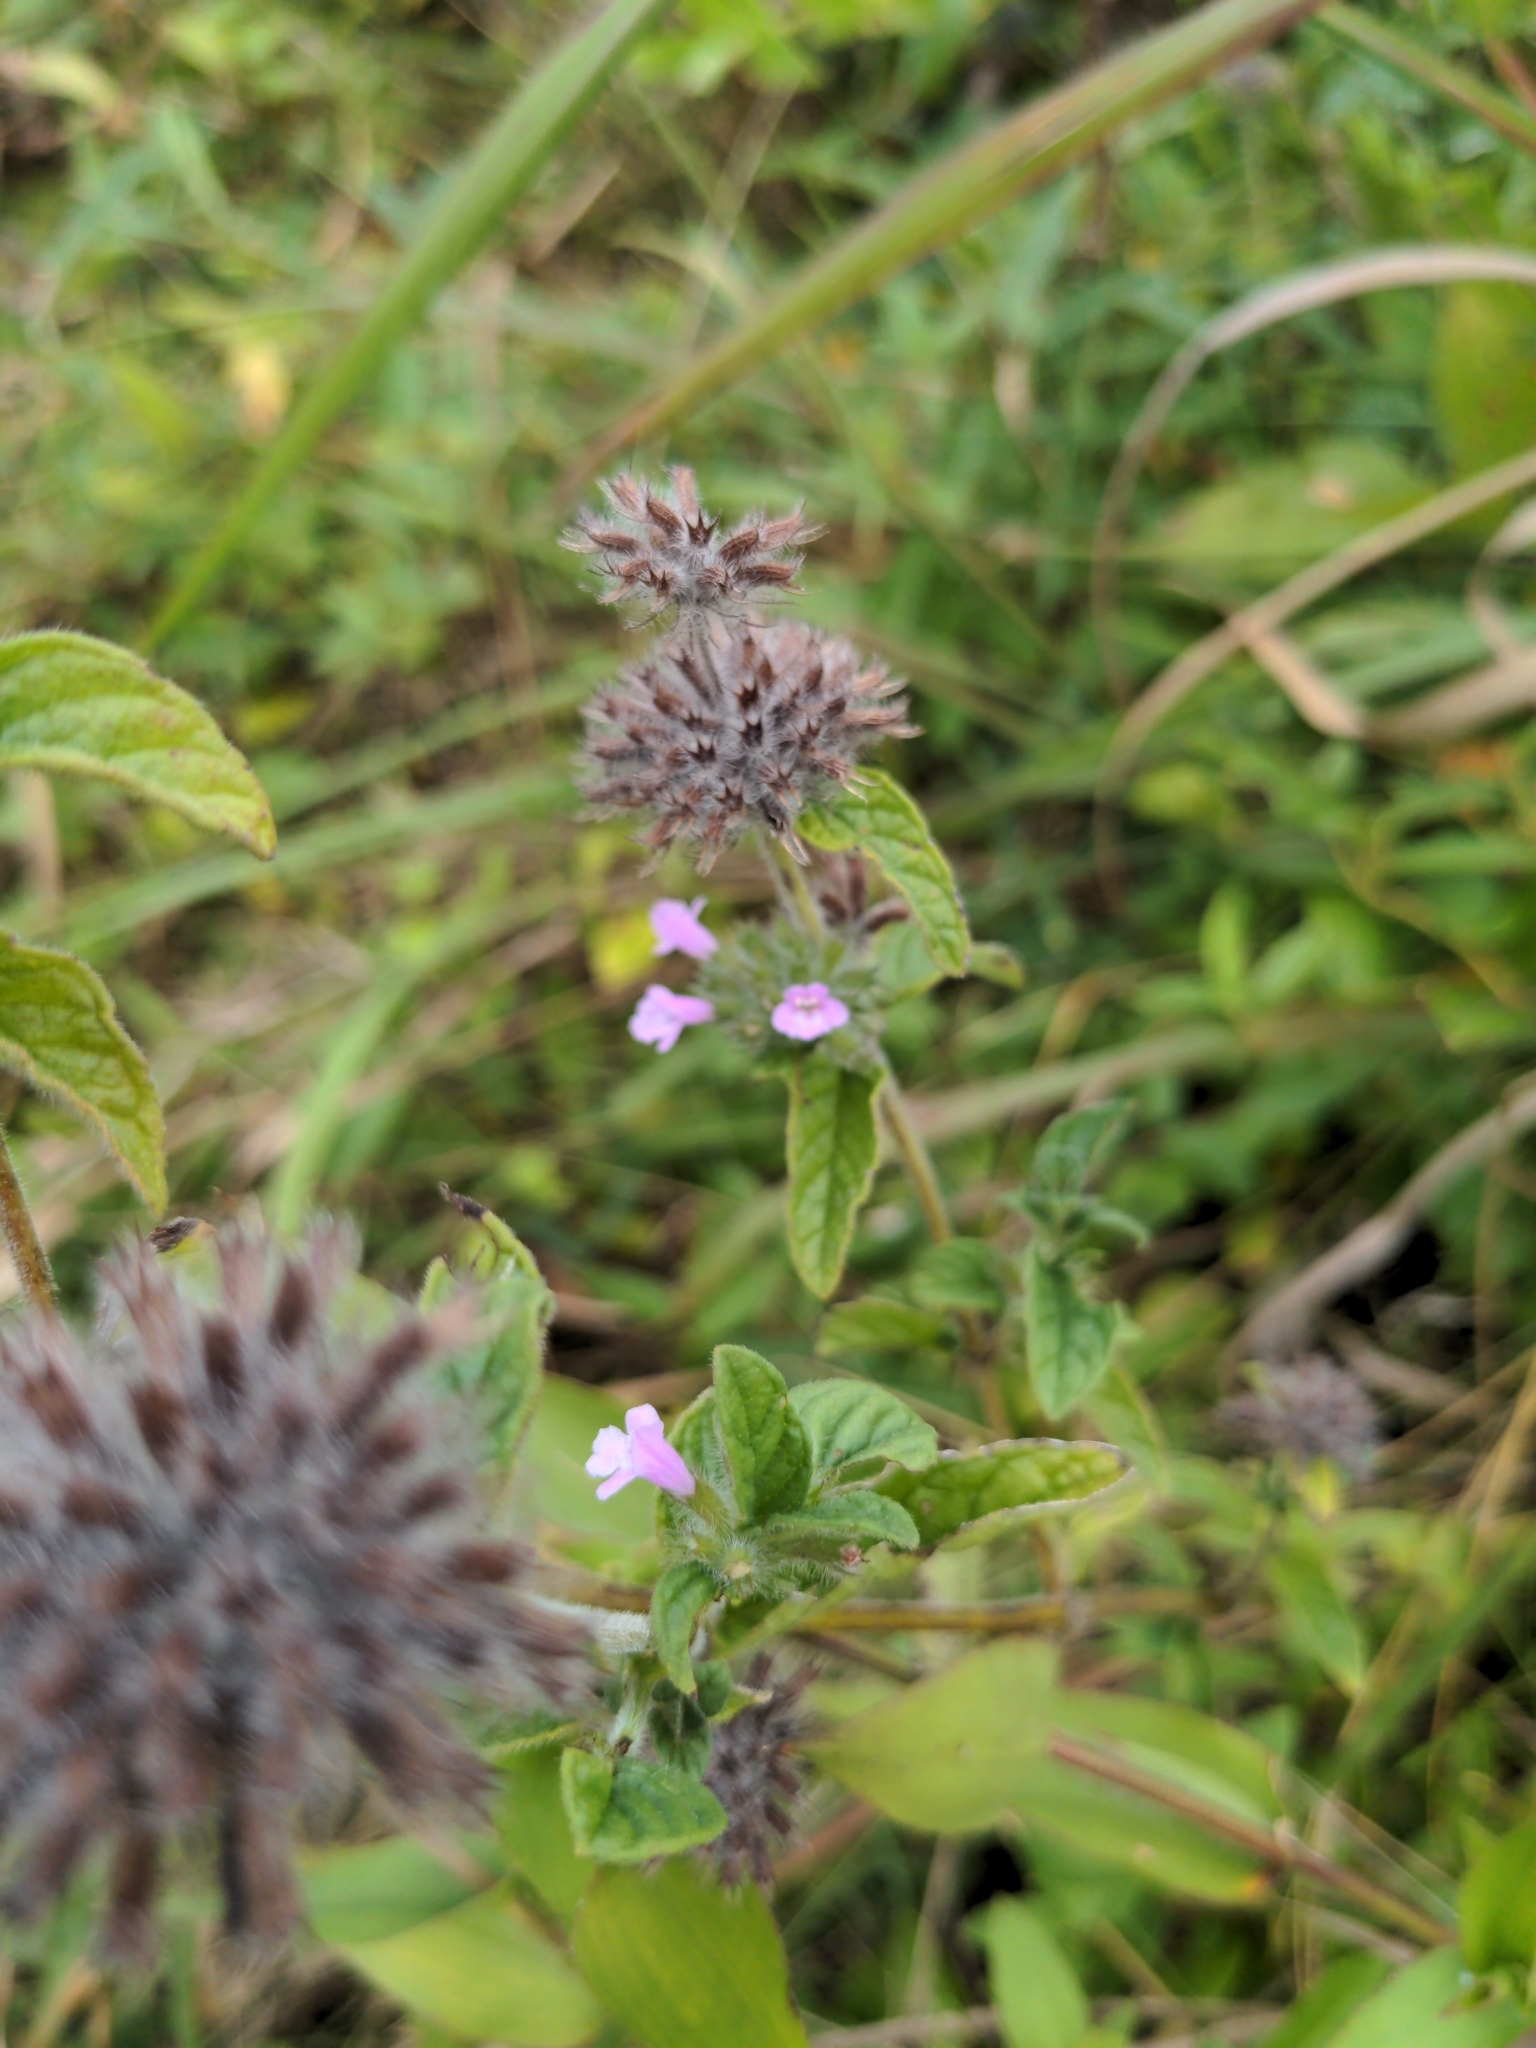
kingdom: Plantae
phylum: Tracheophyta
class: Magnoliopsida
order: Lamiales
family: Lamiaceae
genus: Clinopodium
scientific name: Clinopodium vulgare
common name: Wild basil
